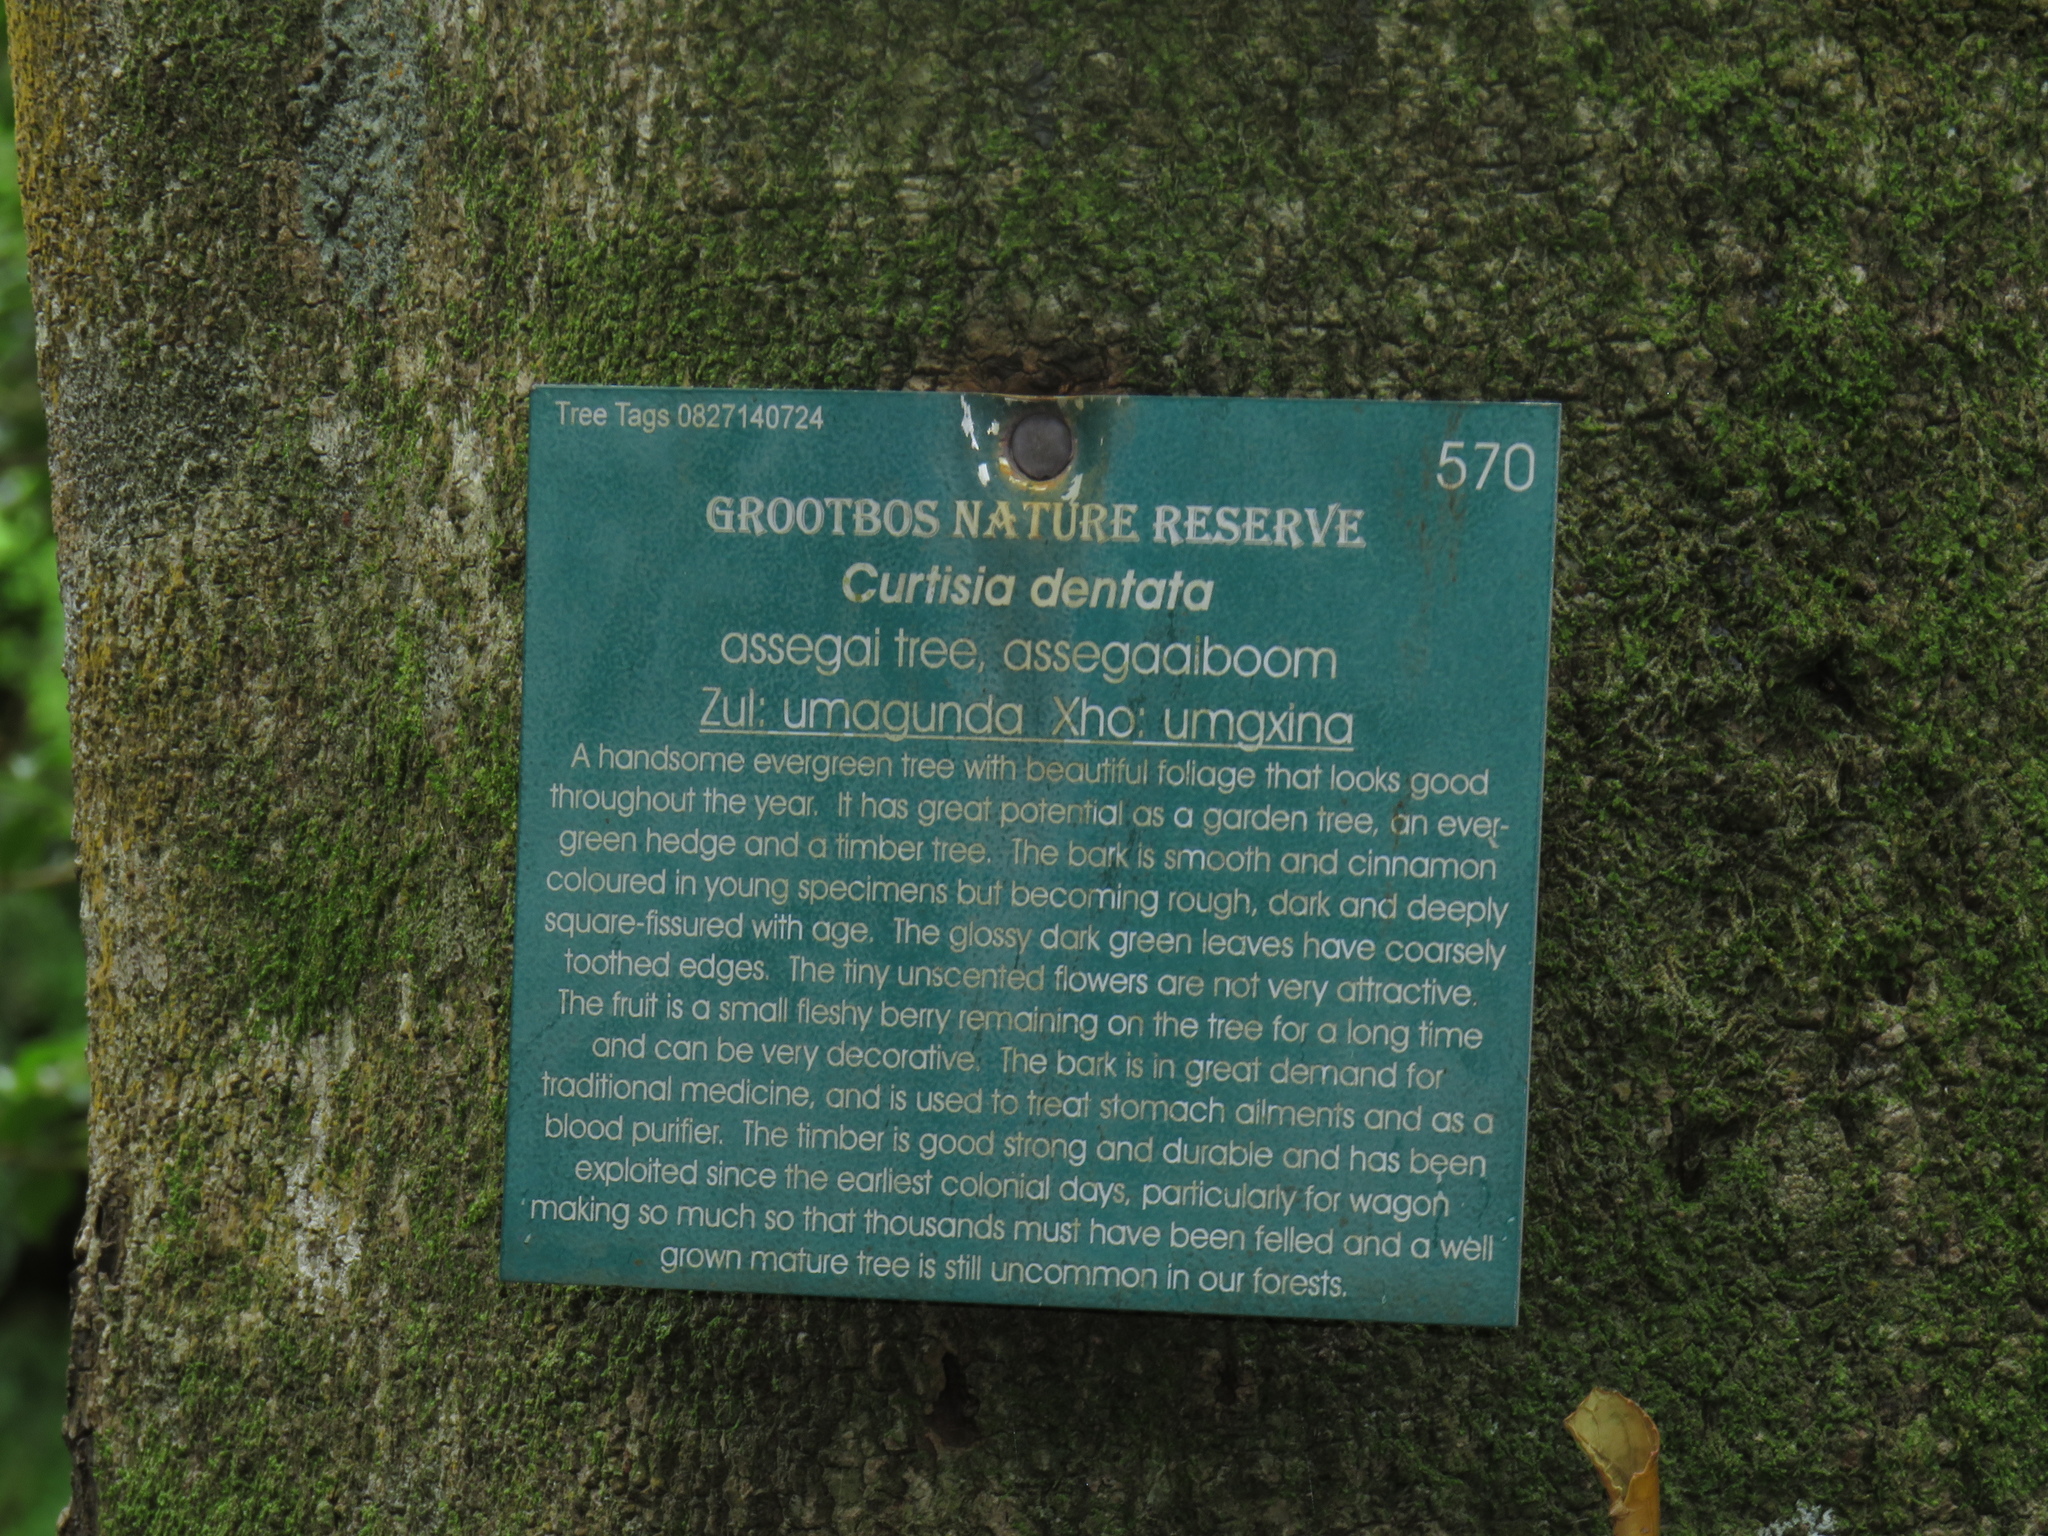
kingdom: Plantae
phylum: Tracheophyta
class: Magnoliopsida
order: Cornales
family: Curtisiaceae
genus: Curtisia
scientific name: Curtisia dentata
